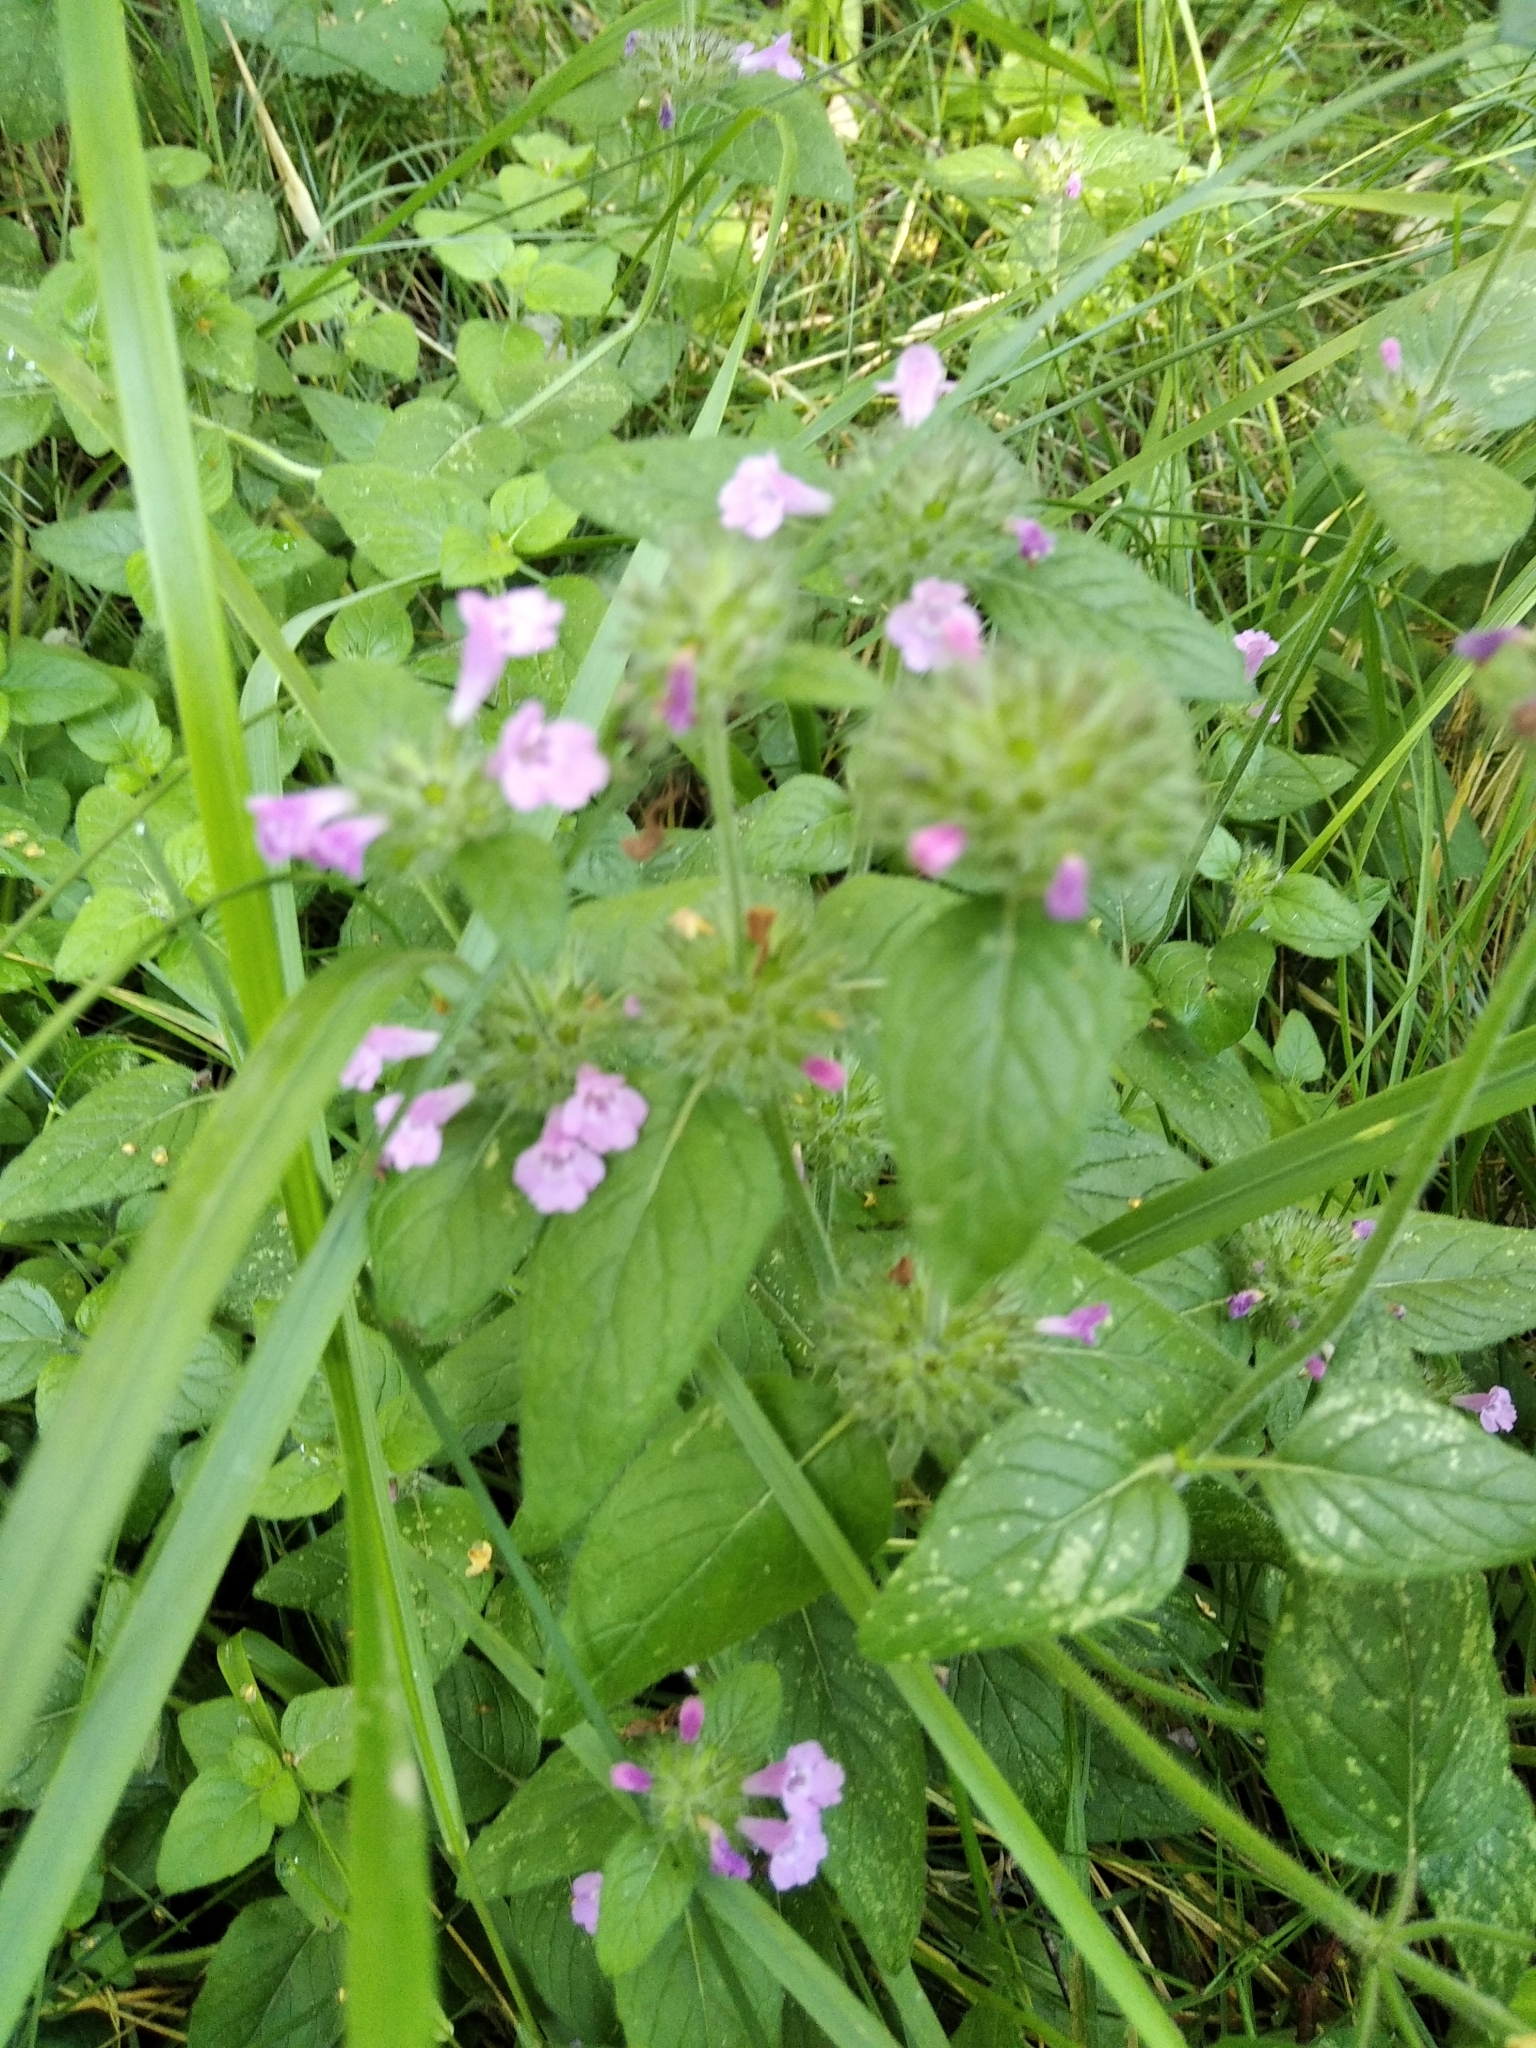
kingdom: Plantae
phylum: Tracheophyta
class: Magnoliopsida
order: Lamiales
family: Lamiaceae
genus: Clinopodium
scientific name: Clinopodium vulgare
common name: Wild basil
